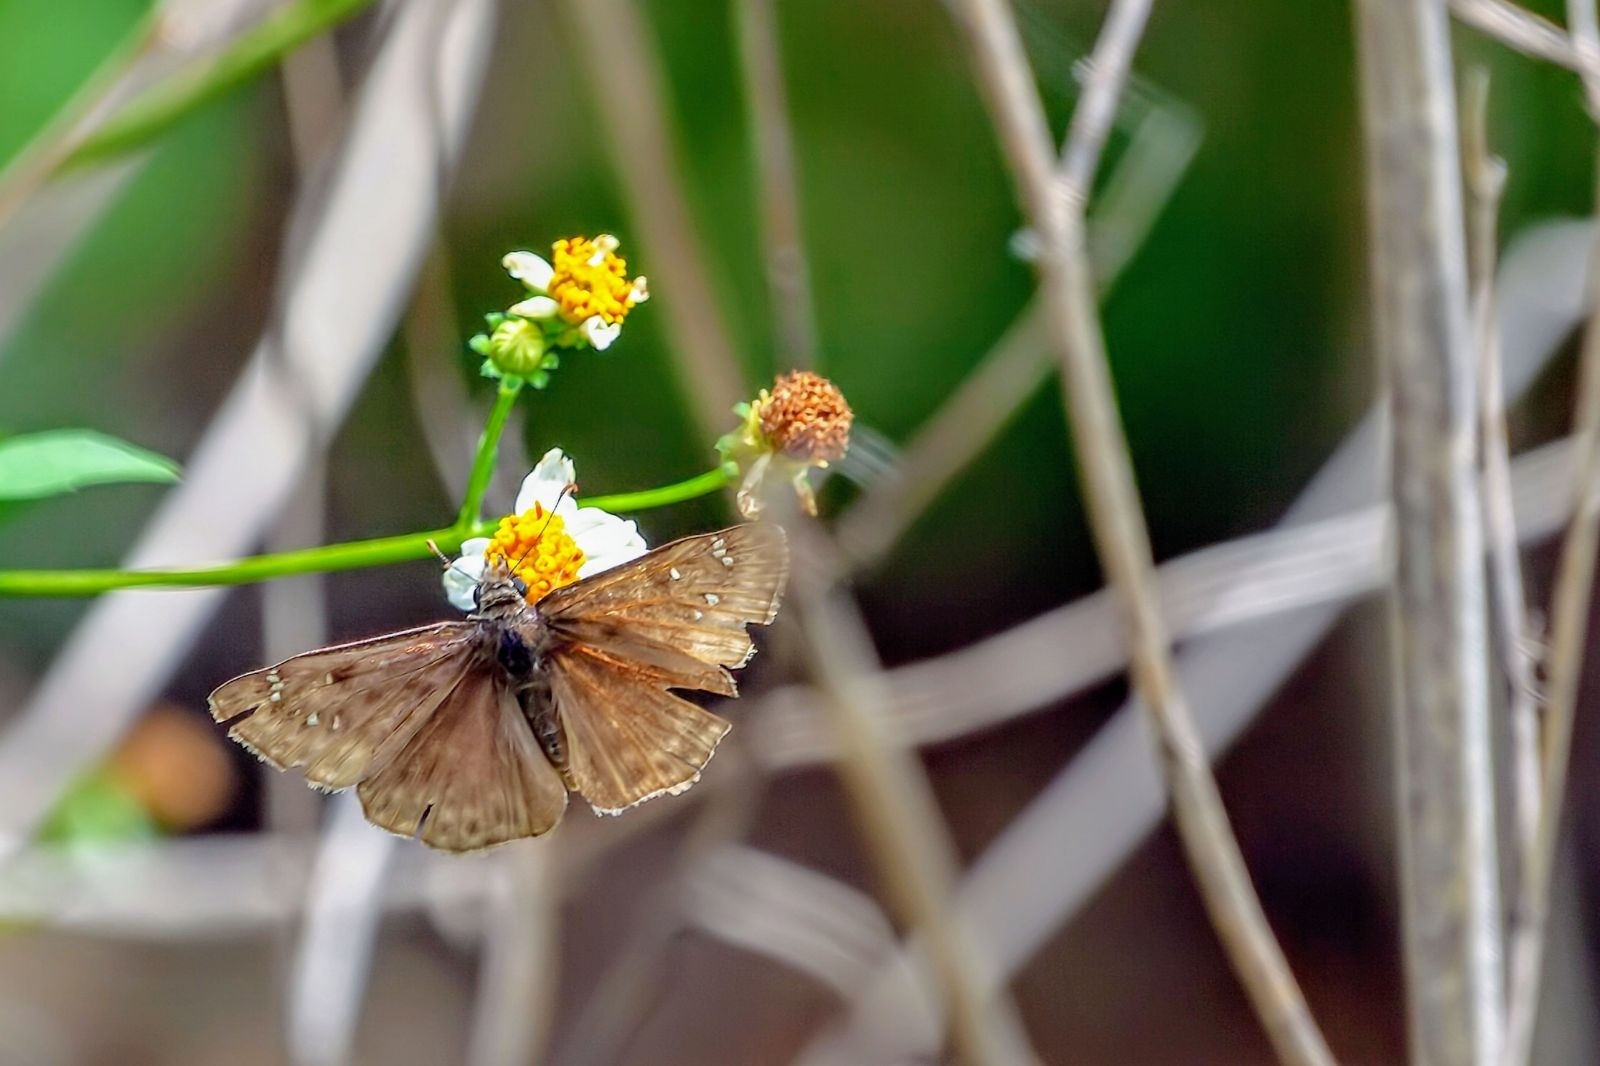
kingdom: Animalia
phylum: Arthropoda
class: Insecta
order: Lepidoptera
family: Hesperiidae
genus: Erynnis
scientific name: Erynnis horatius
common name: Horace's duskywing
